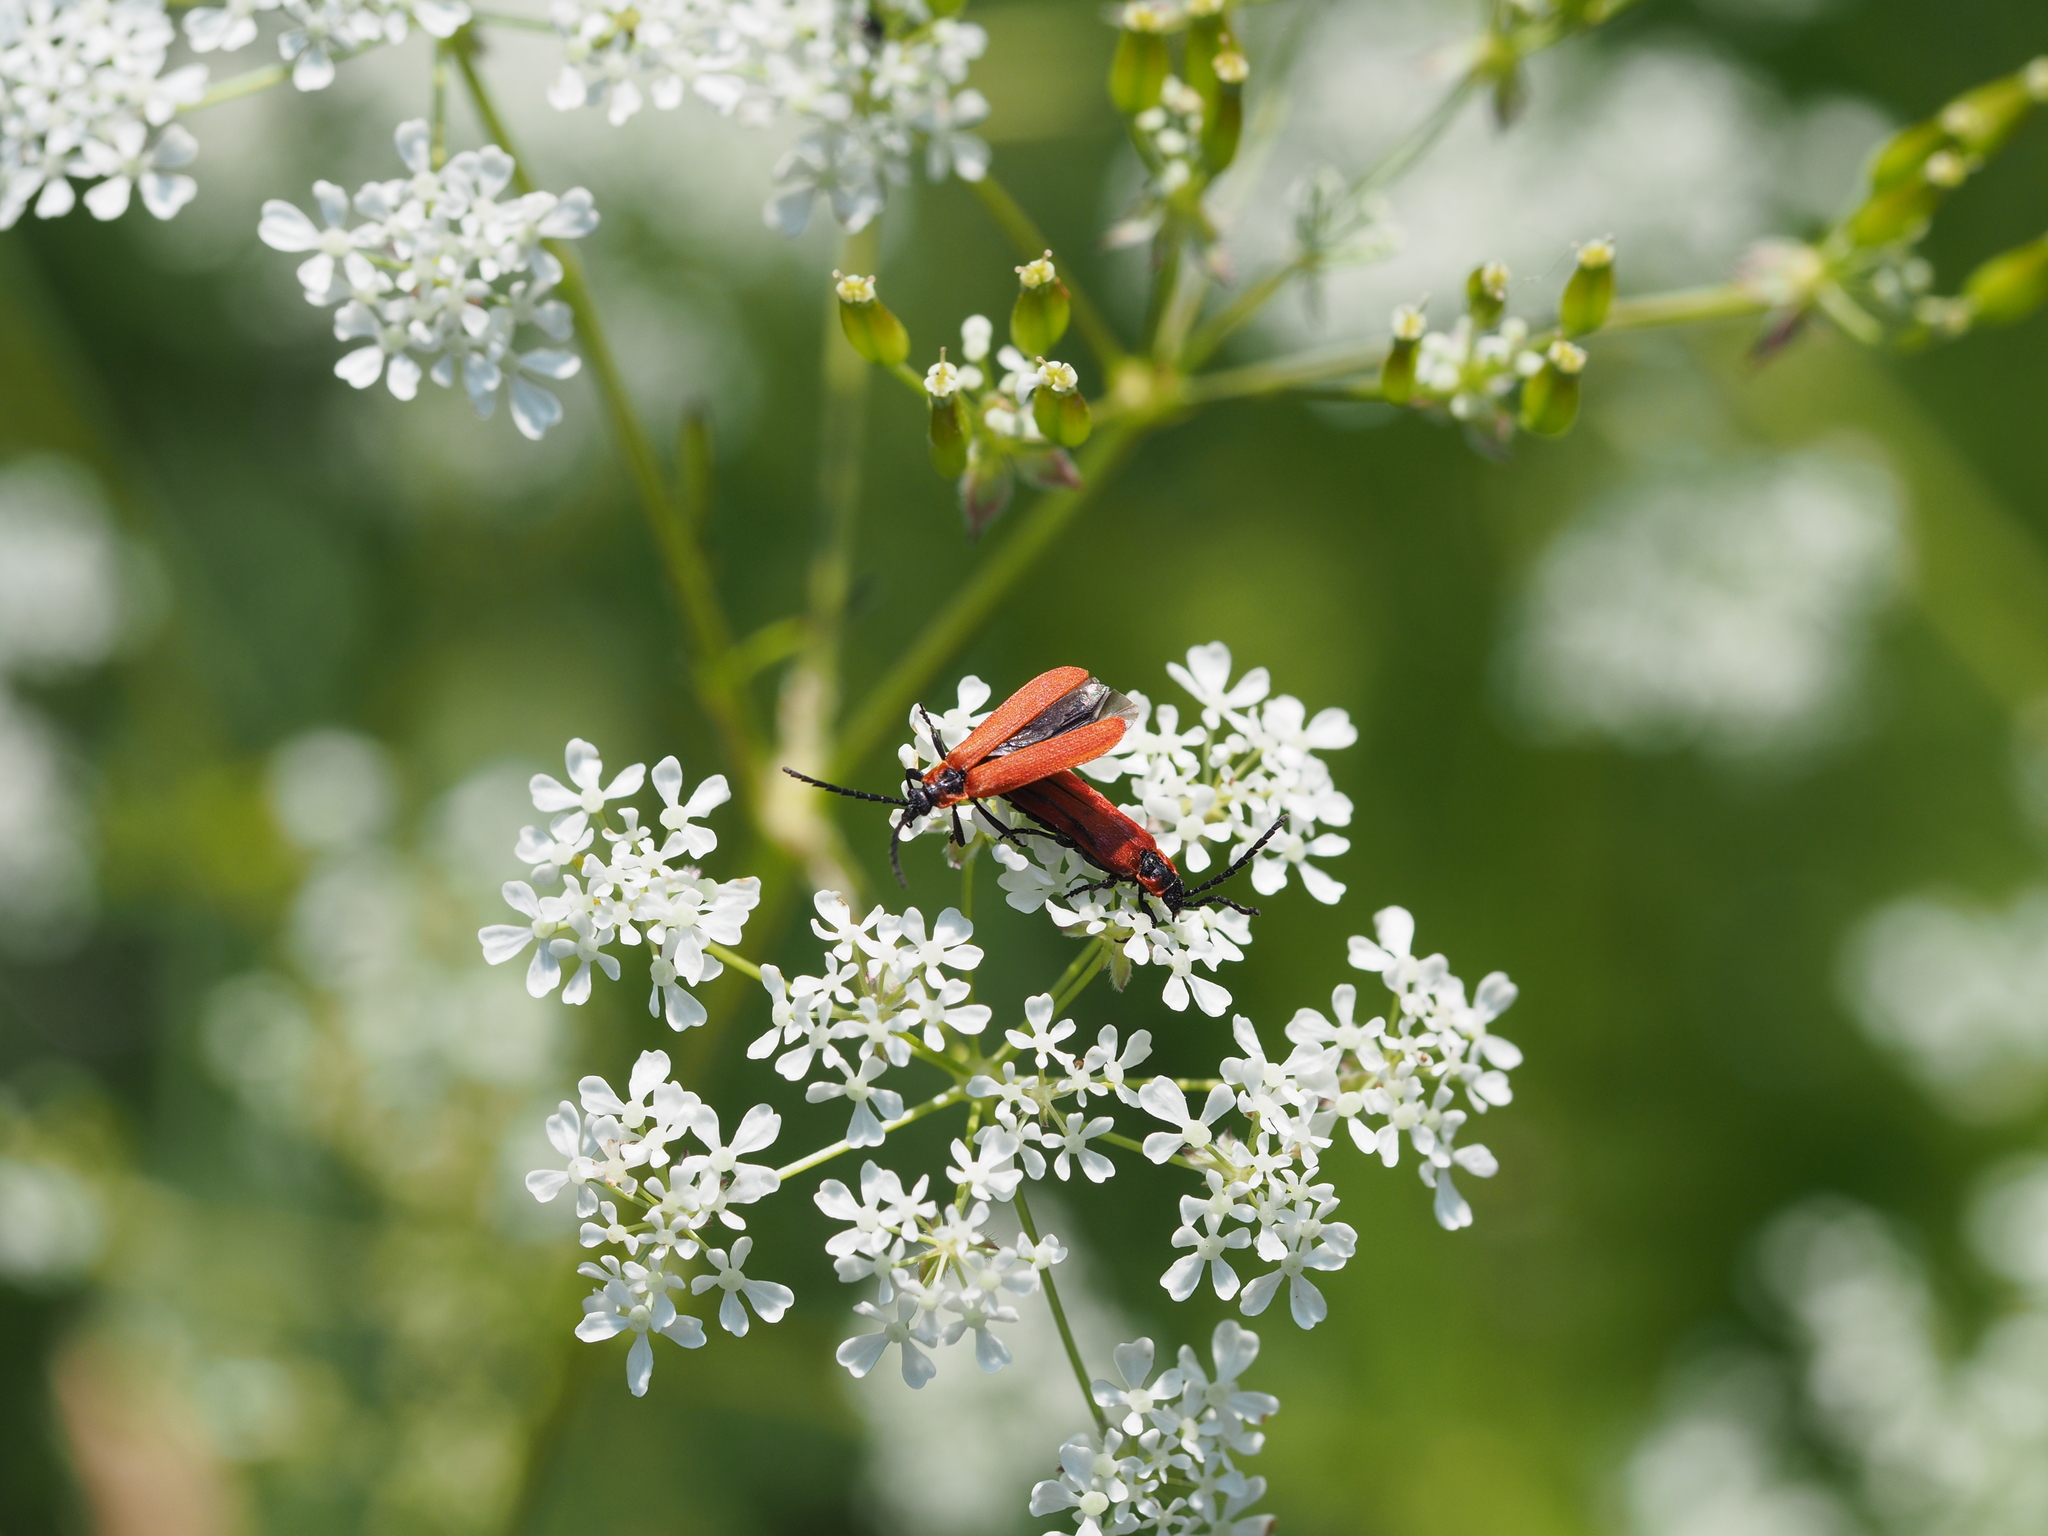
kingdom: Animalia
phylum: Arthropoda
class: Insecta
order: Coleoptera
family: Lycidae
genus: Lygistopterus
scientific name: Lygistopterus sanguineus
